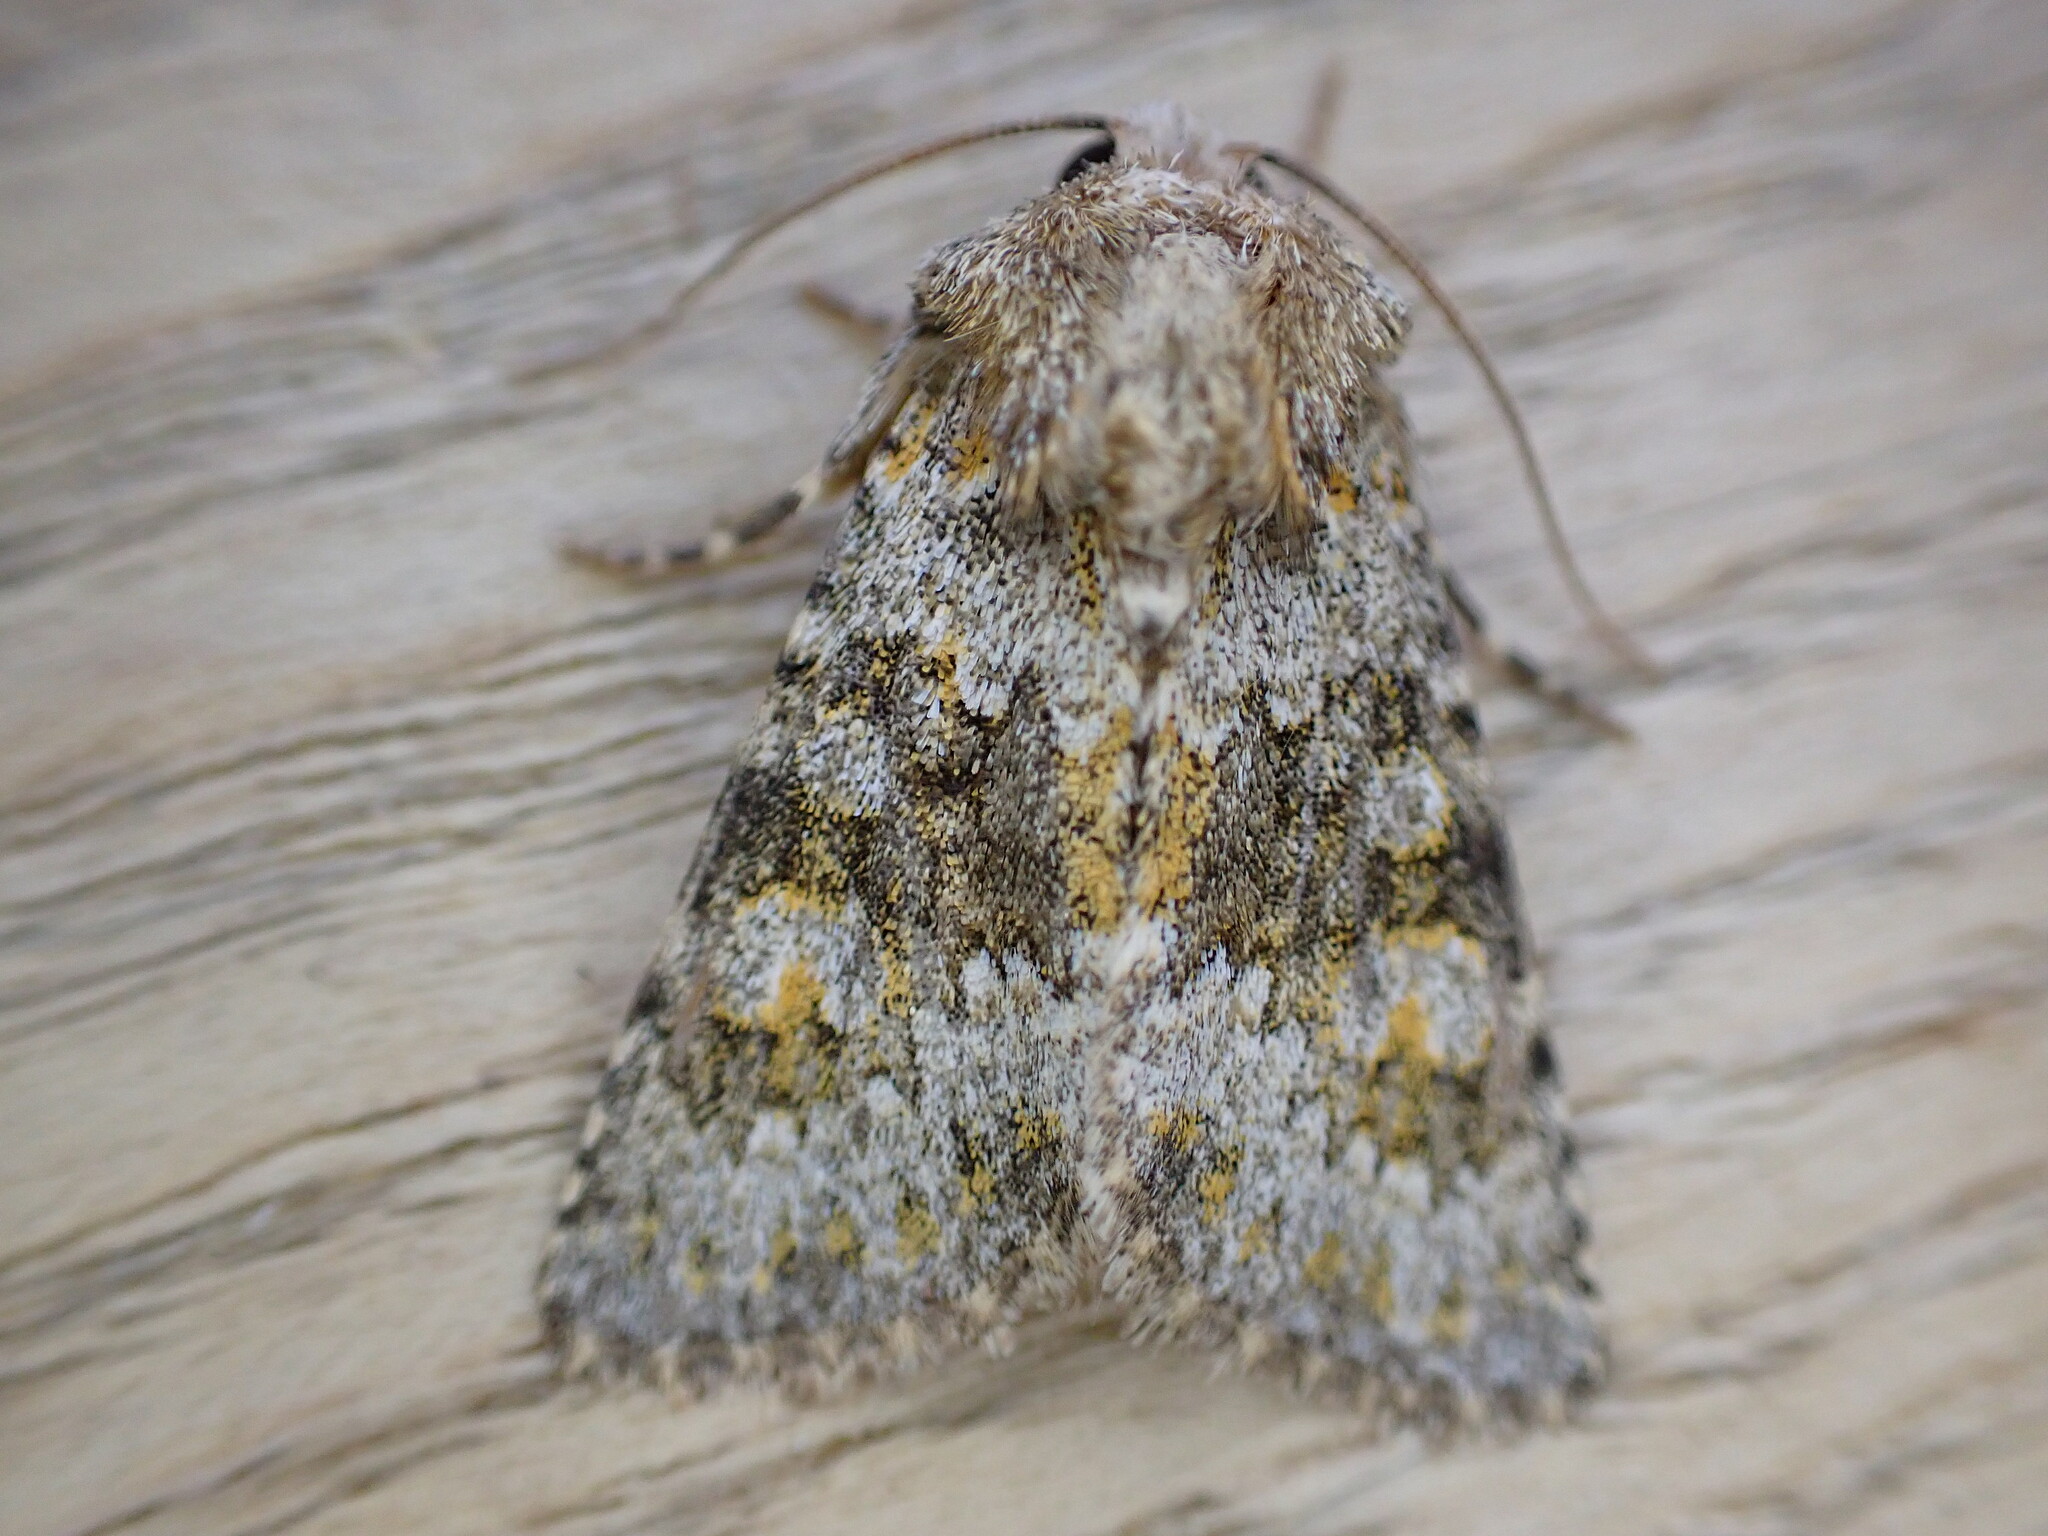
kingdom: Animalia
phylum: Arthropoda
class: Insecta
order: Lepidoptera
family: Noctuidae
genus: Hecatera
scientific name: Hecatera dysodea
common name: Small ranunculus
